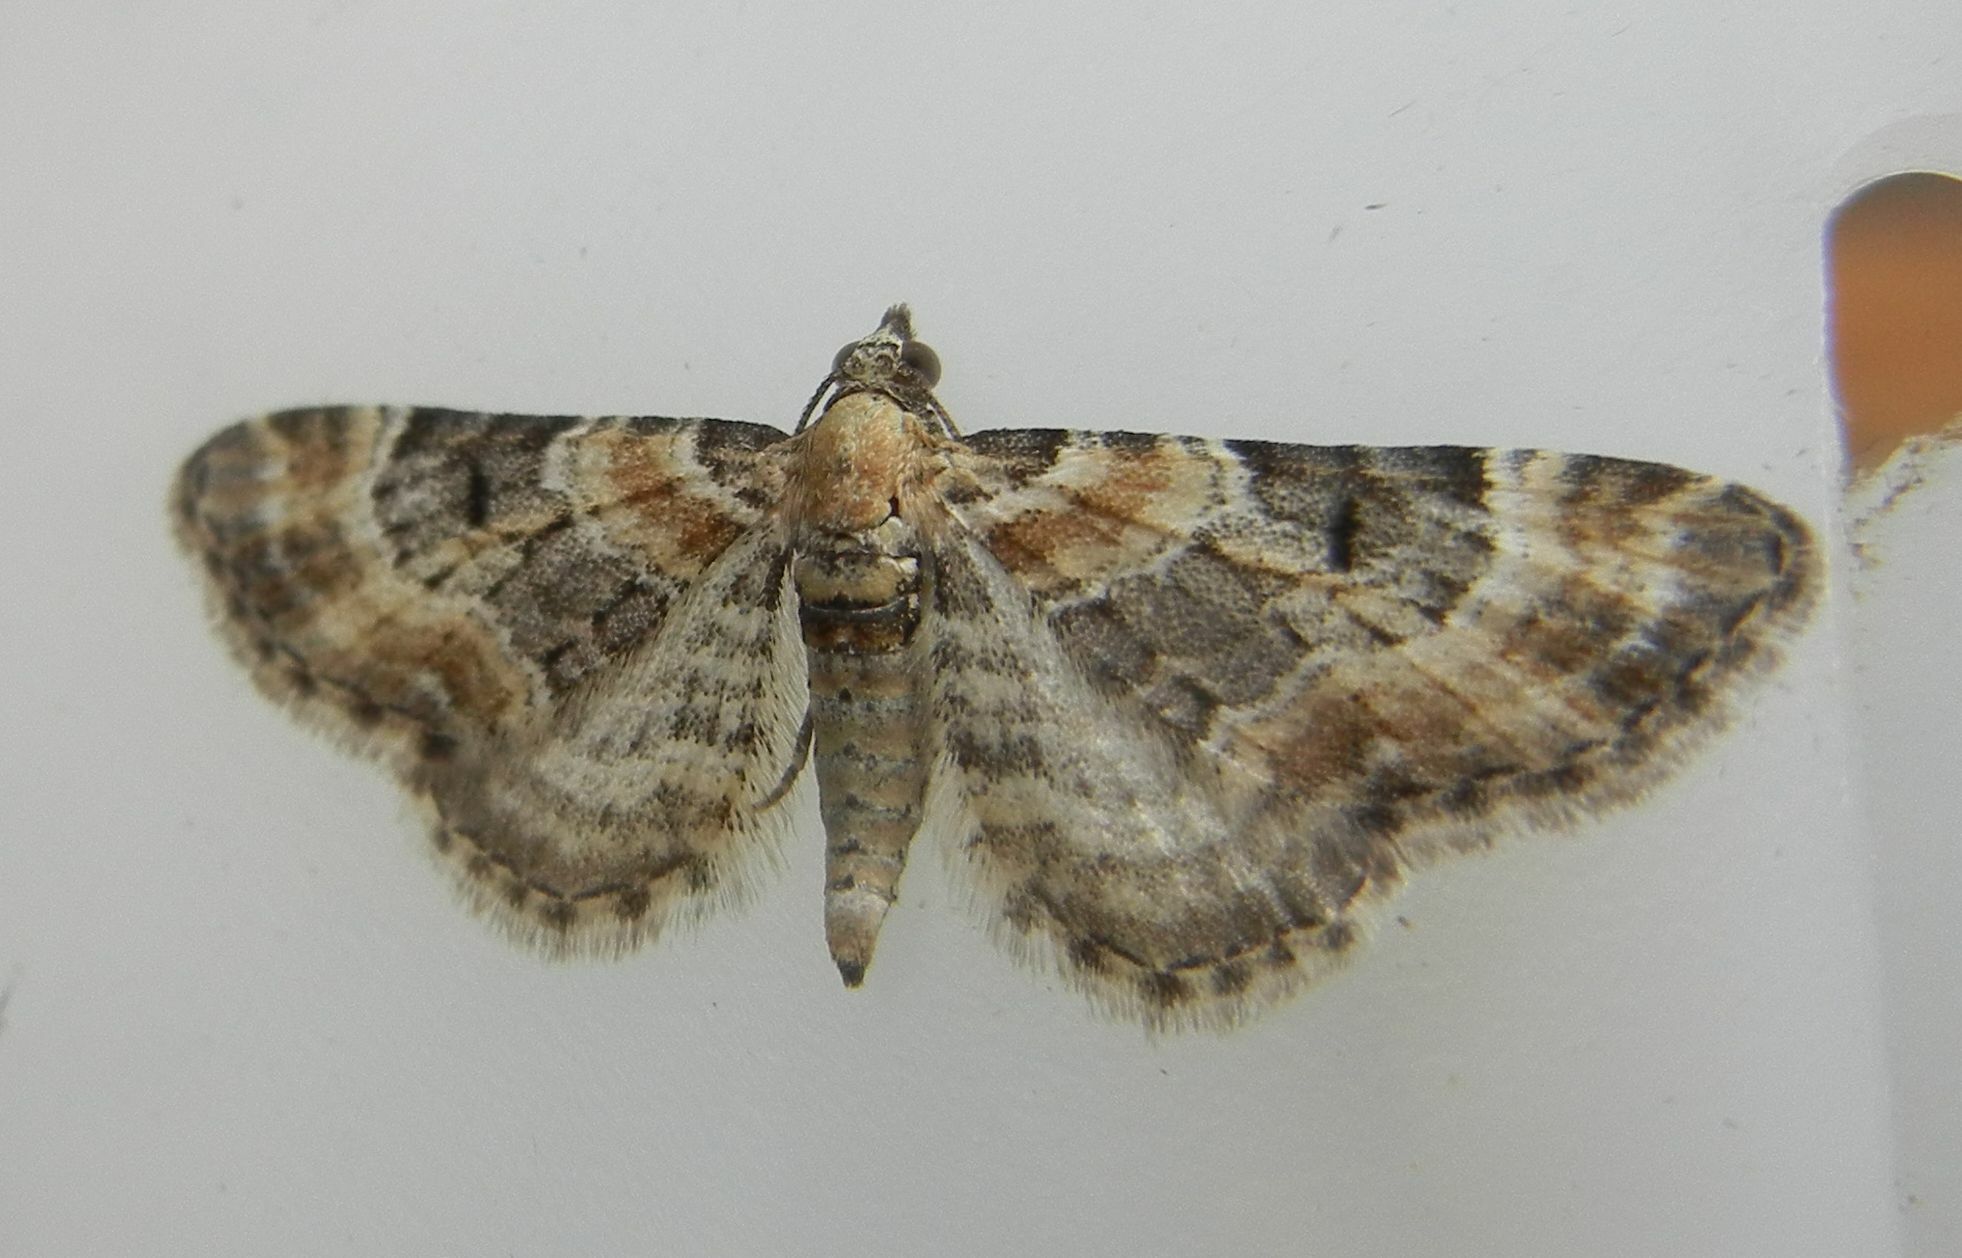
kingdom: Animalia
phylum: Arthropoda
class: Insecta
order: Lepidoptera
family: Geometridae
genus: Eupithecia
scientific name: Eupithecia pulchellata
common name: Foxglove pug
